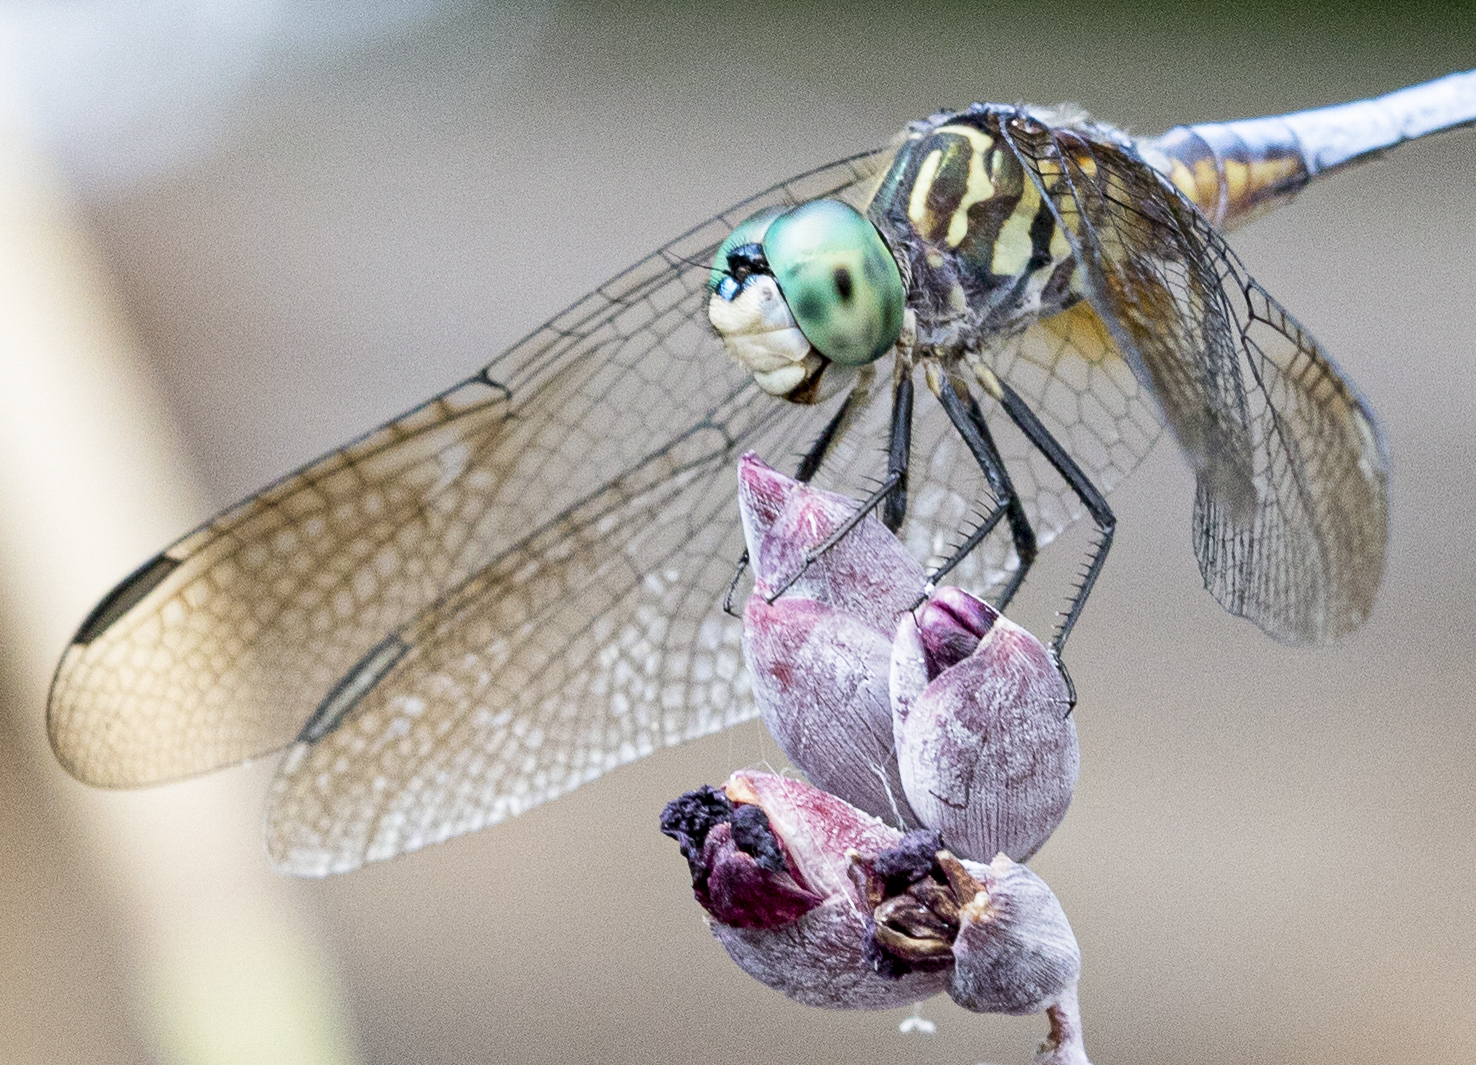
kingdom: Animalia
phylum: Arthropoda
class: Insecta
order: Odonata
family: Libellulidae
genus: Pachydiplax
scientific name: Pachydiplax longipennis
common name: Blue dasher
